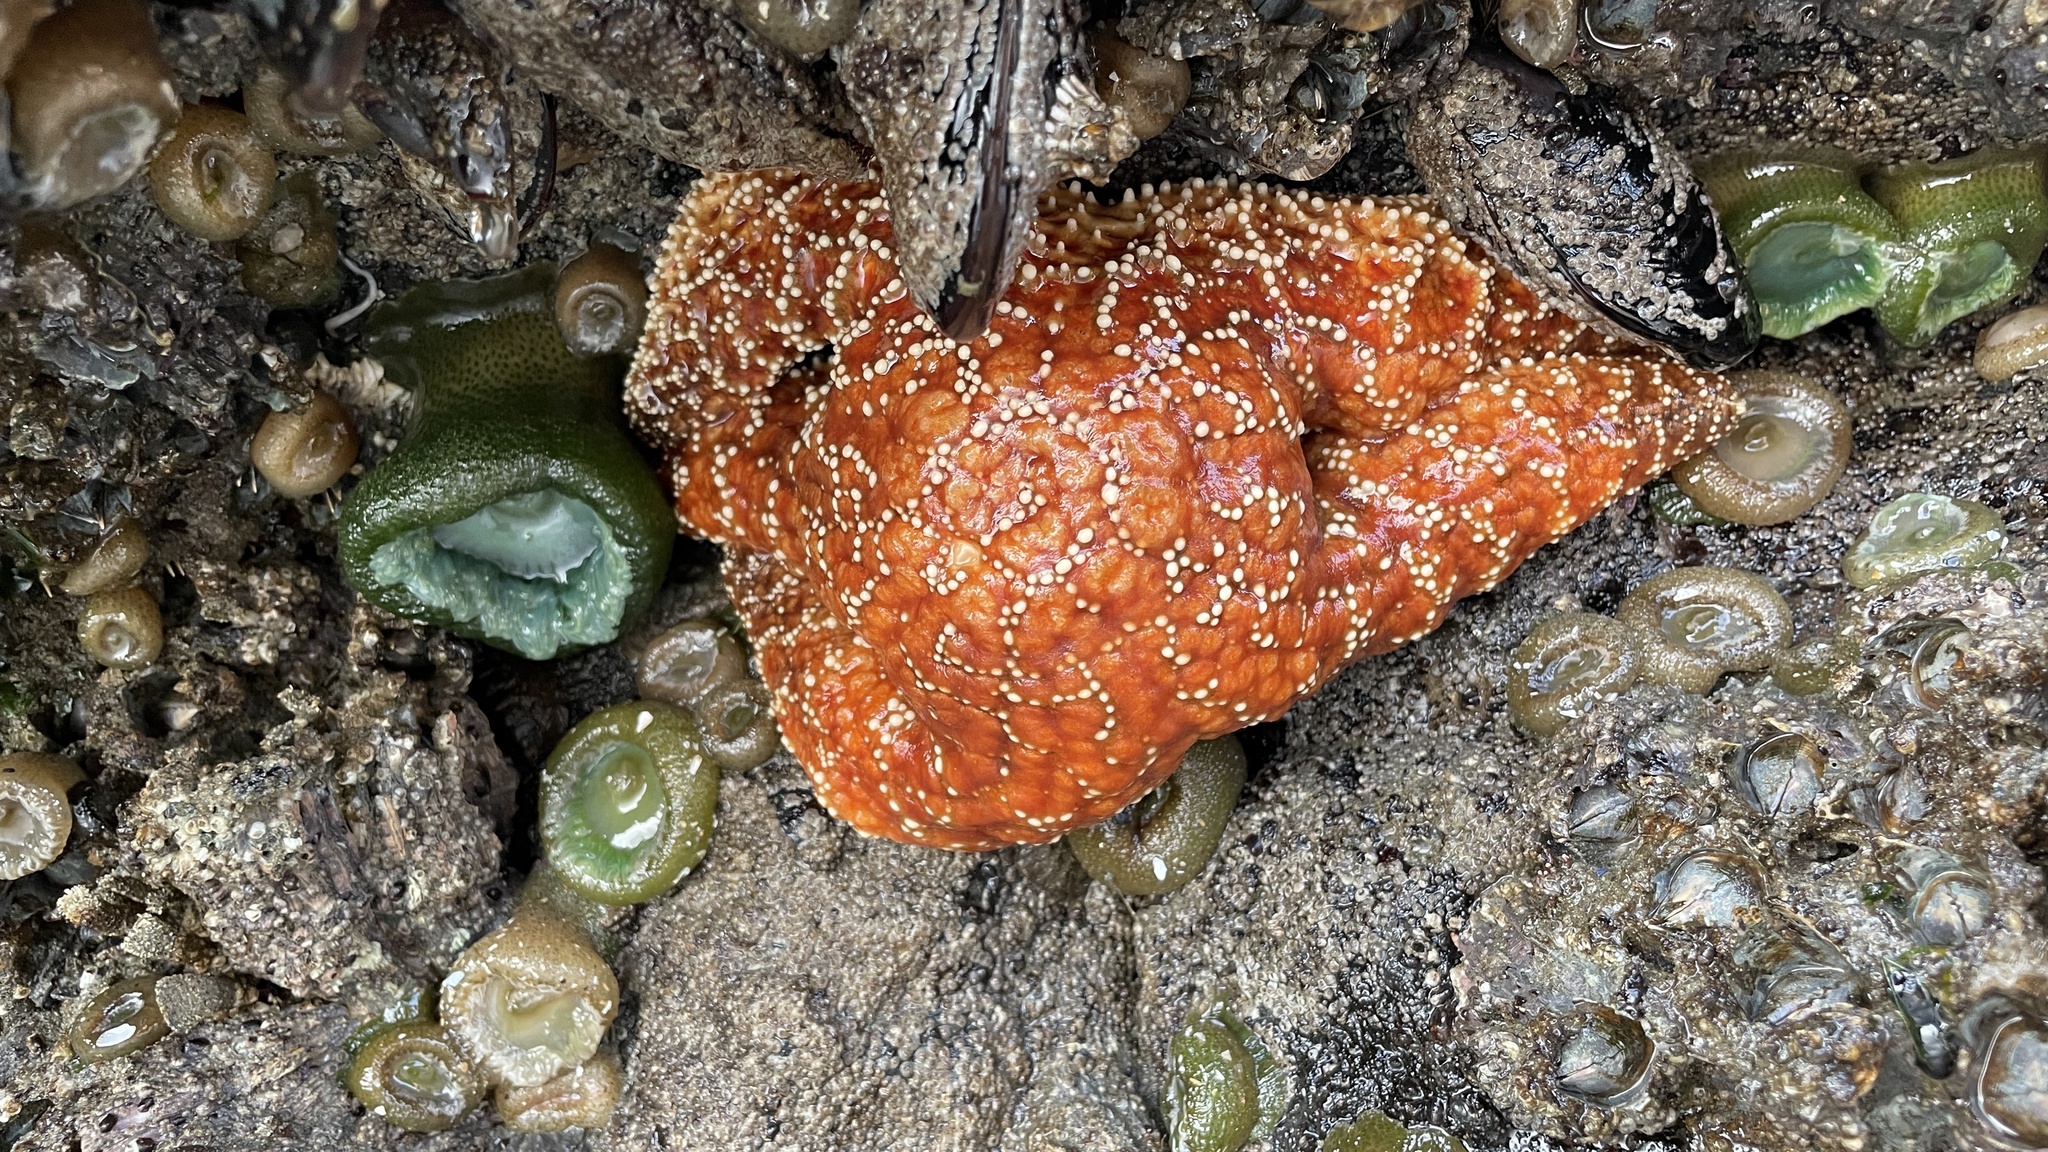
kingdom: Animalia
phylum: Echinodermata
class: Asteroidea
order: Forcipulatida
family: Asteriidae
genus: Pisaster
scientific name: Pisaster ochraceus
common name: Ochre stars
